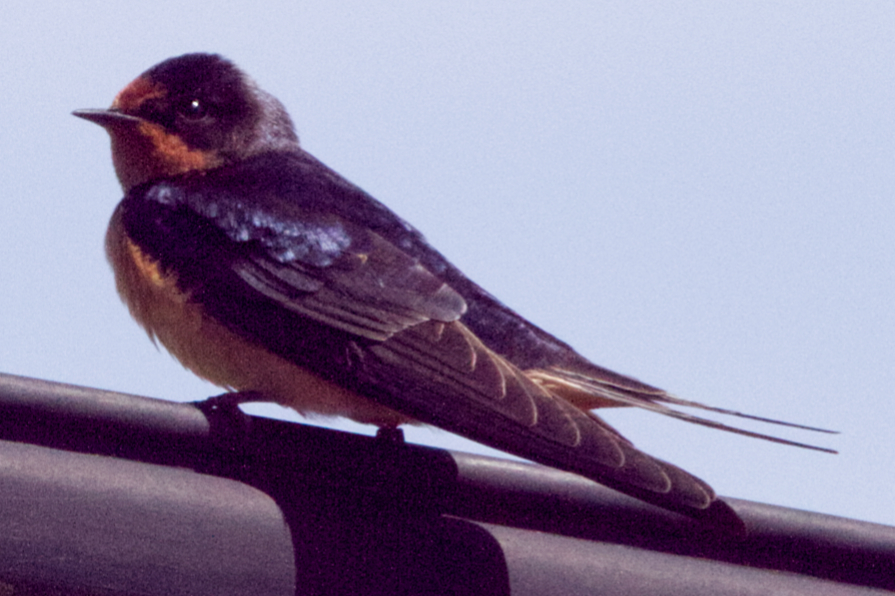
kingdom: Animalia
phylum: Chordata
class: Aves
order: Passeriformes
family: Hirundinidae
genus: Hirundo
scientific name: Hirundo rustica
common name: Barn swallow
